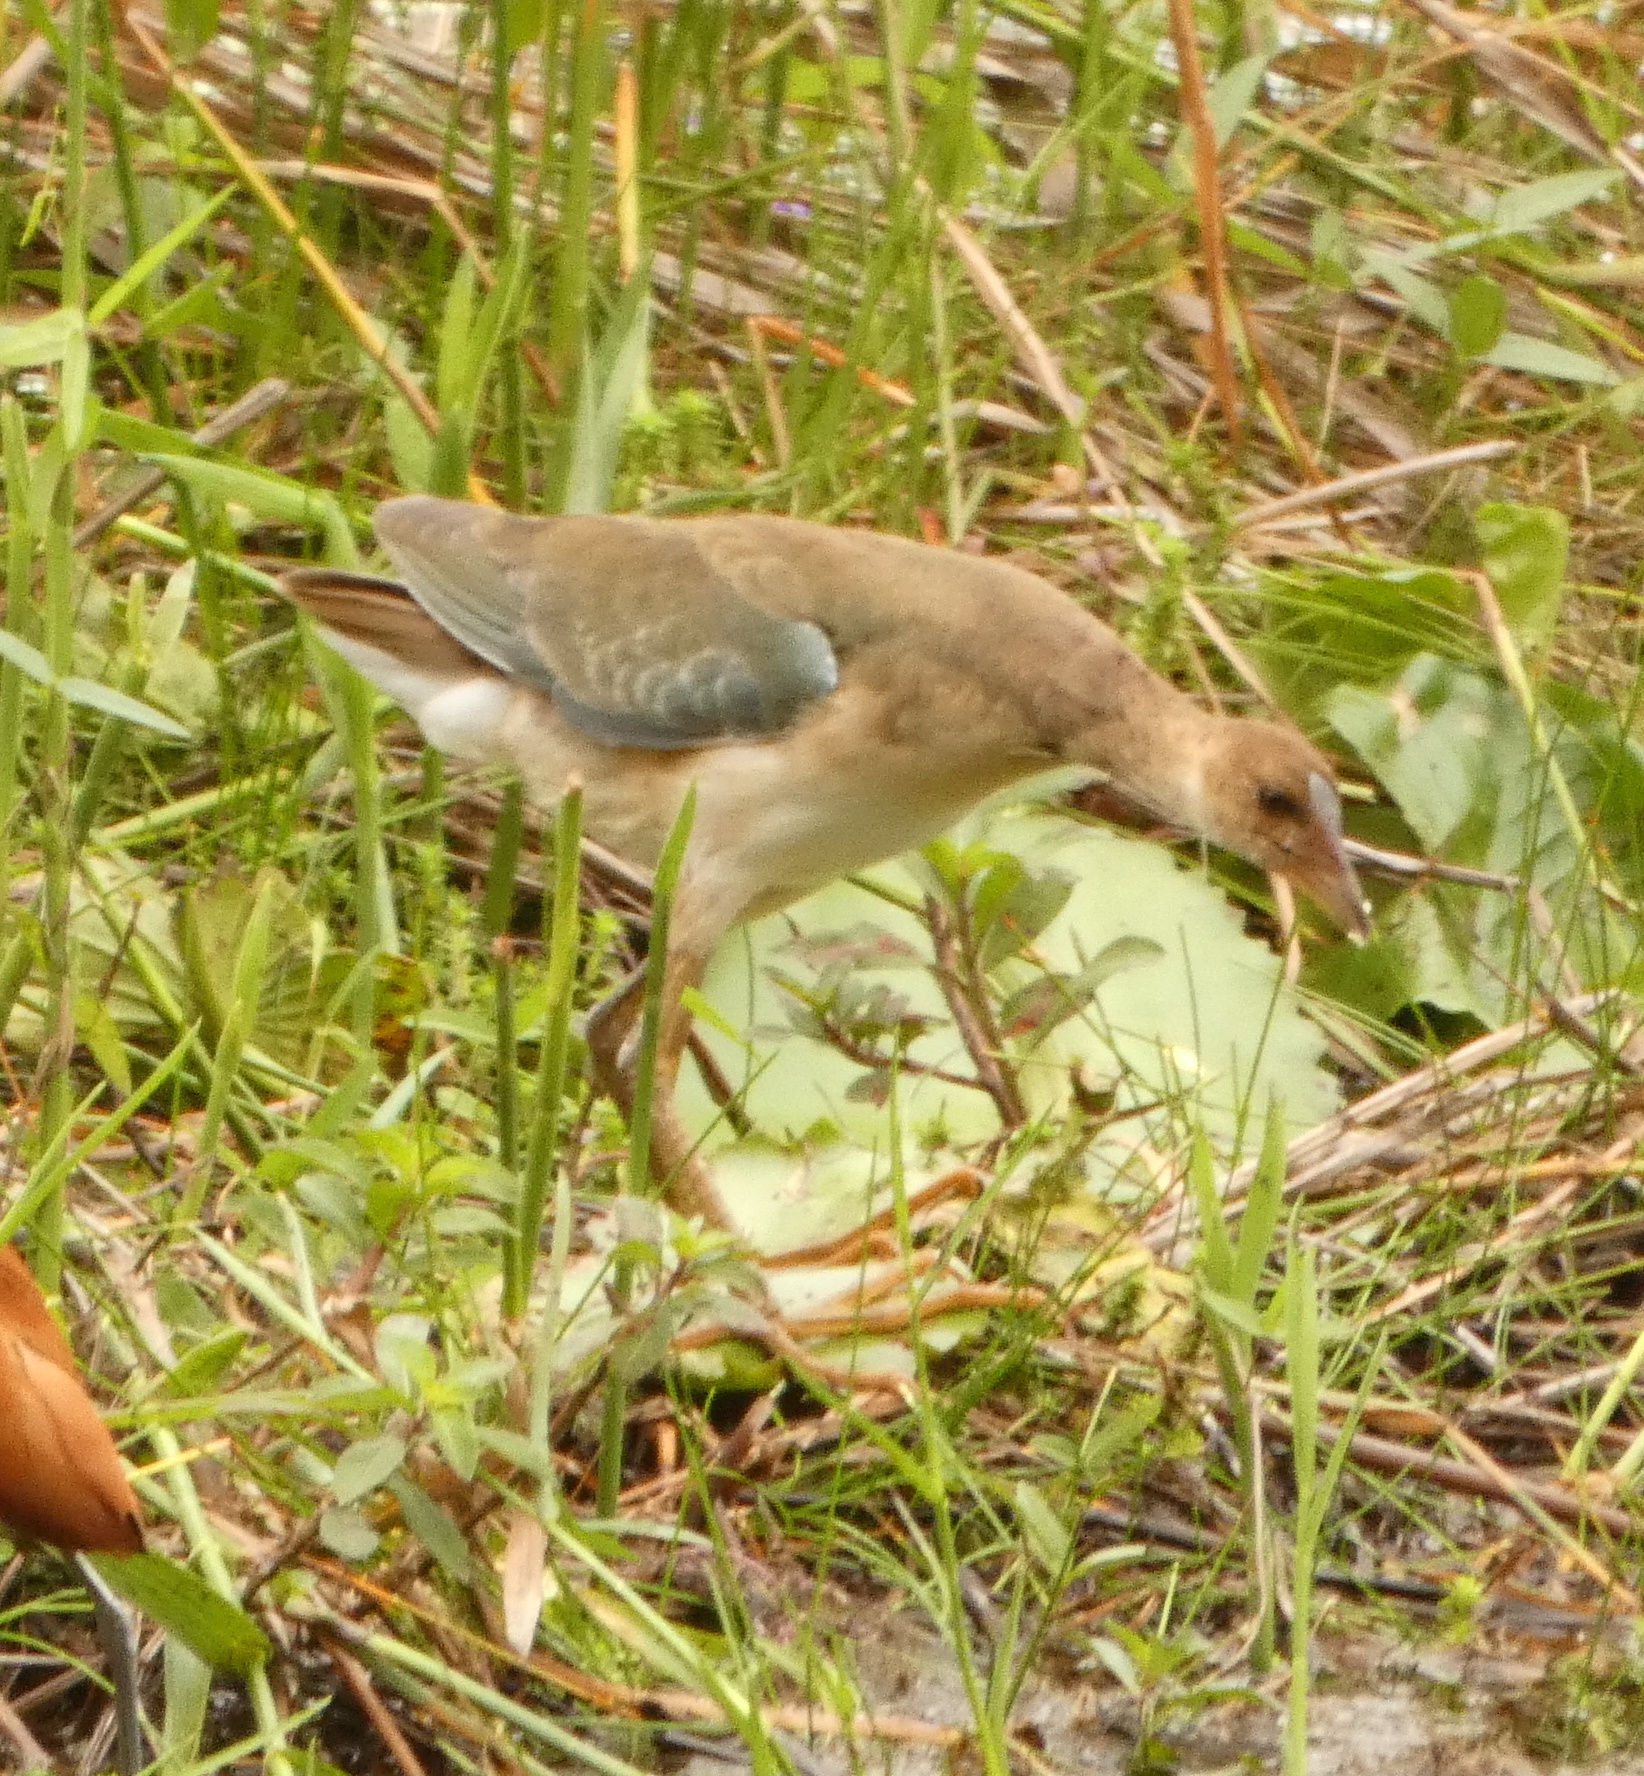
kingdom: Animalia
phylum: Chordata
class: Aves
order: Gruiformes
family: Rallidae
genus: Porphyrio
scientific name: Porphyrio martinica
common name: Purple gallinule
